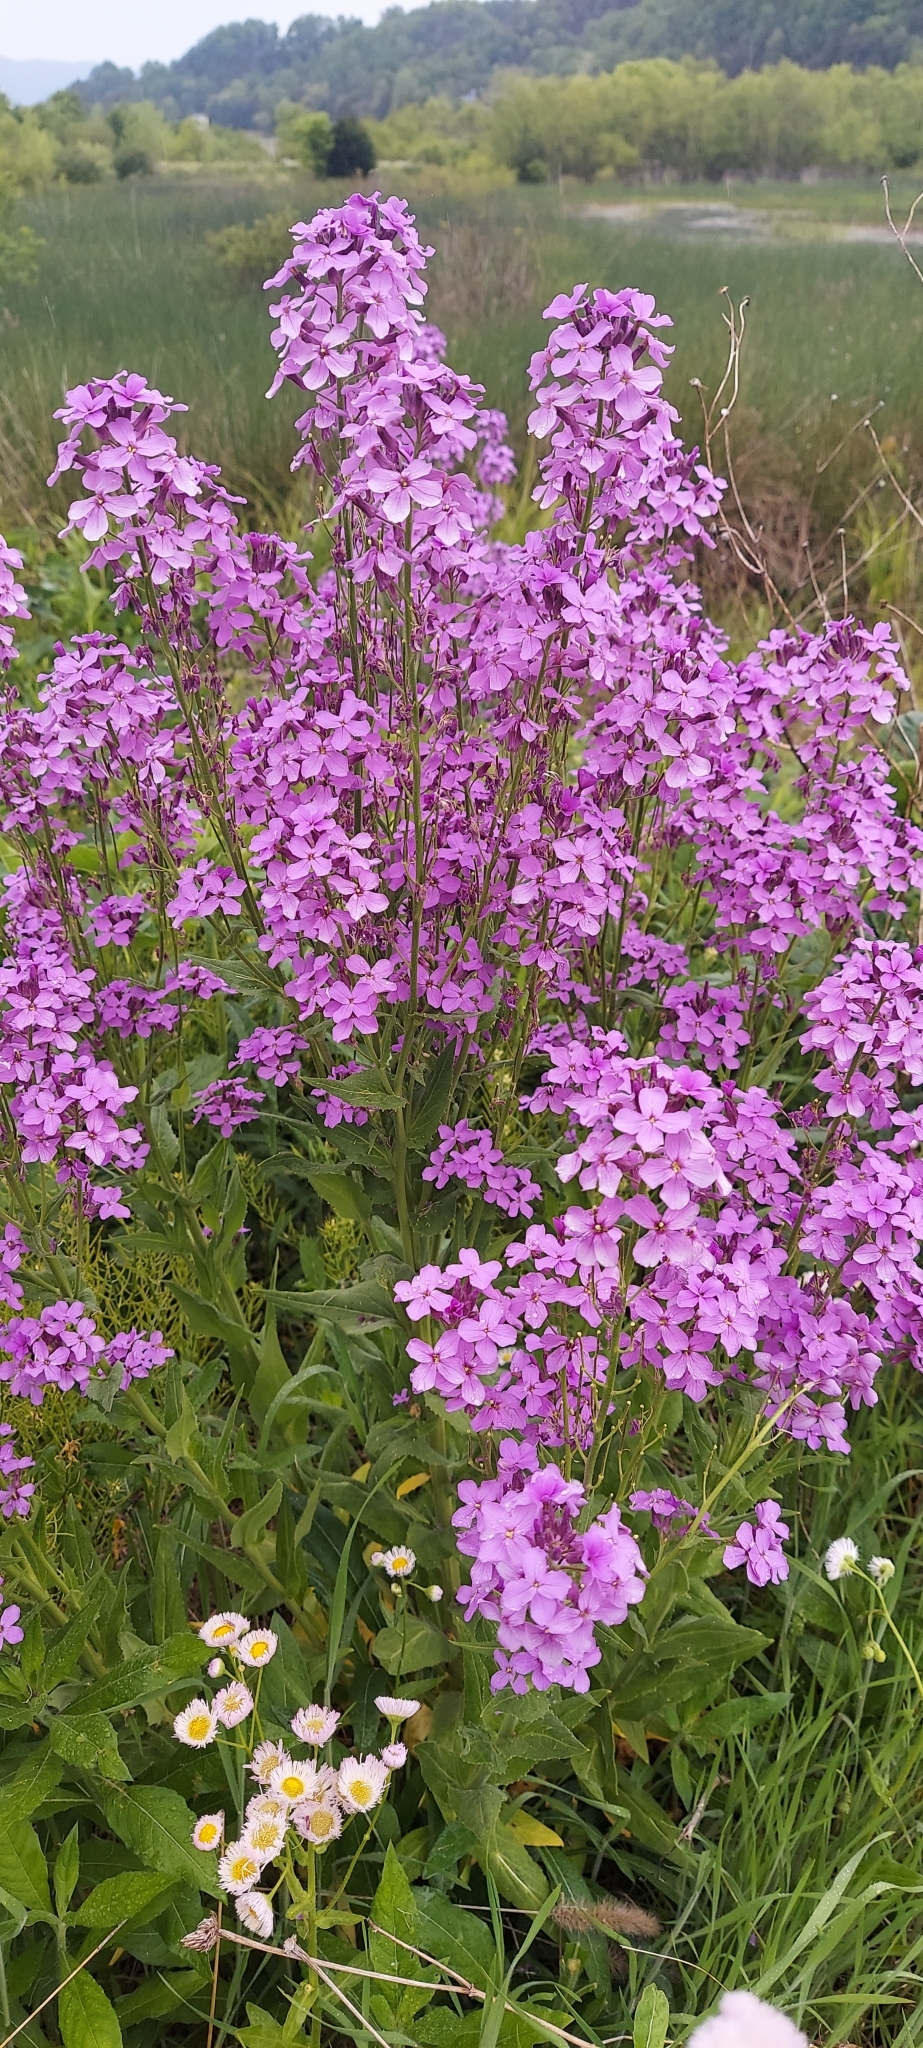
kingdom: Plantae
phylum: Tracheophyta
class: Magnoliopsida
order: Brassicales
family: Brassicaceae
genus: Hesperis
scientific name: Hesperis matronalis
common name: Dame's-violet
